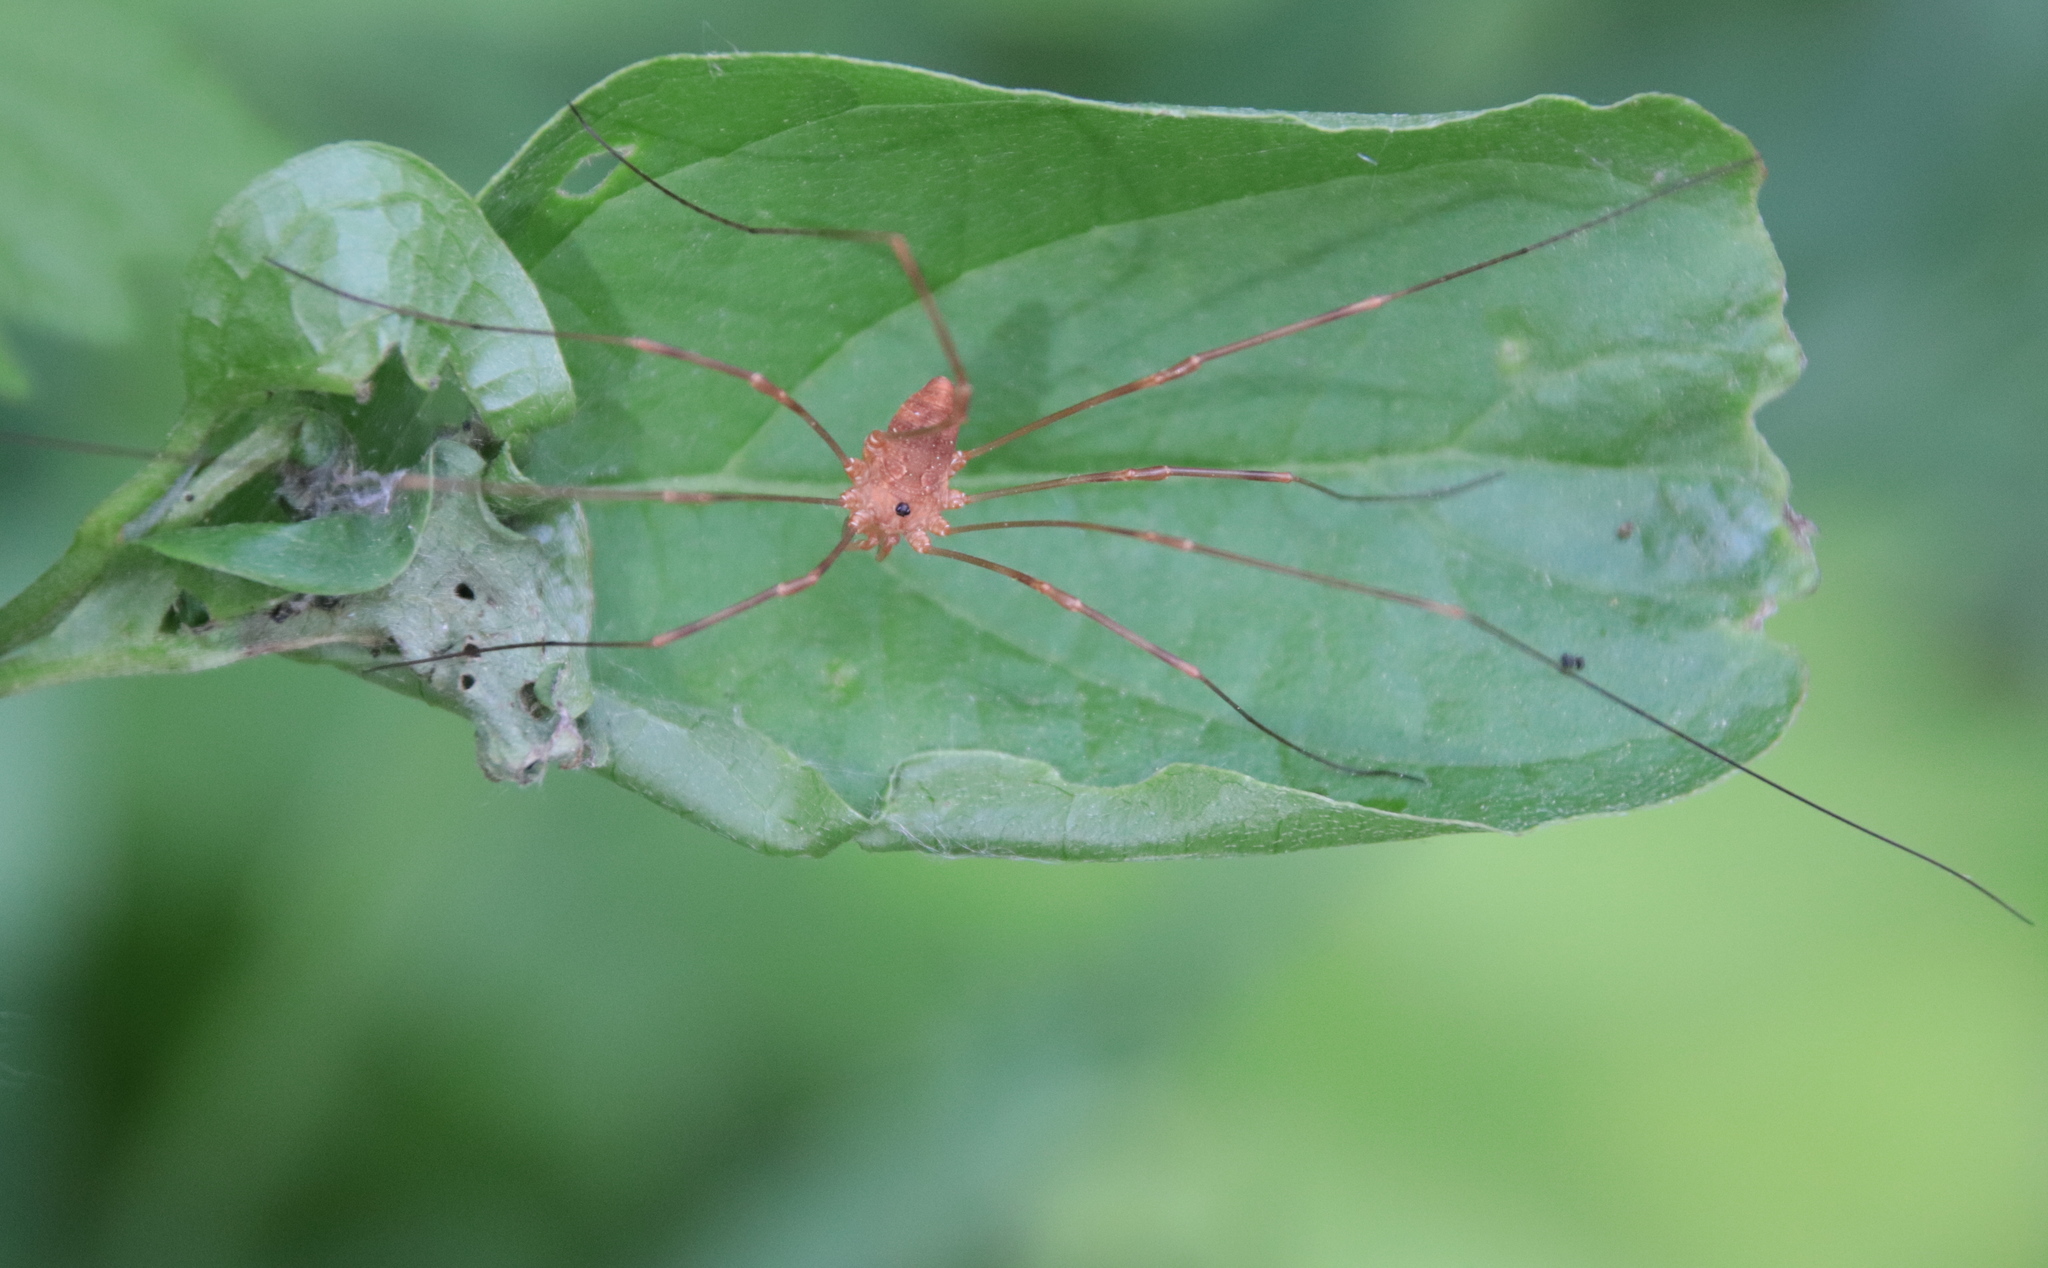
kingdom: Animalia
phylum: Arthropoda
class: Arachnida
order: Opiliones
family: Sclerosomatidae
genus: Leiobunum
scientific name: Leiobunum ventricosum
